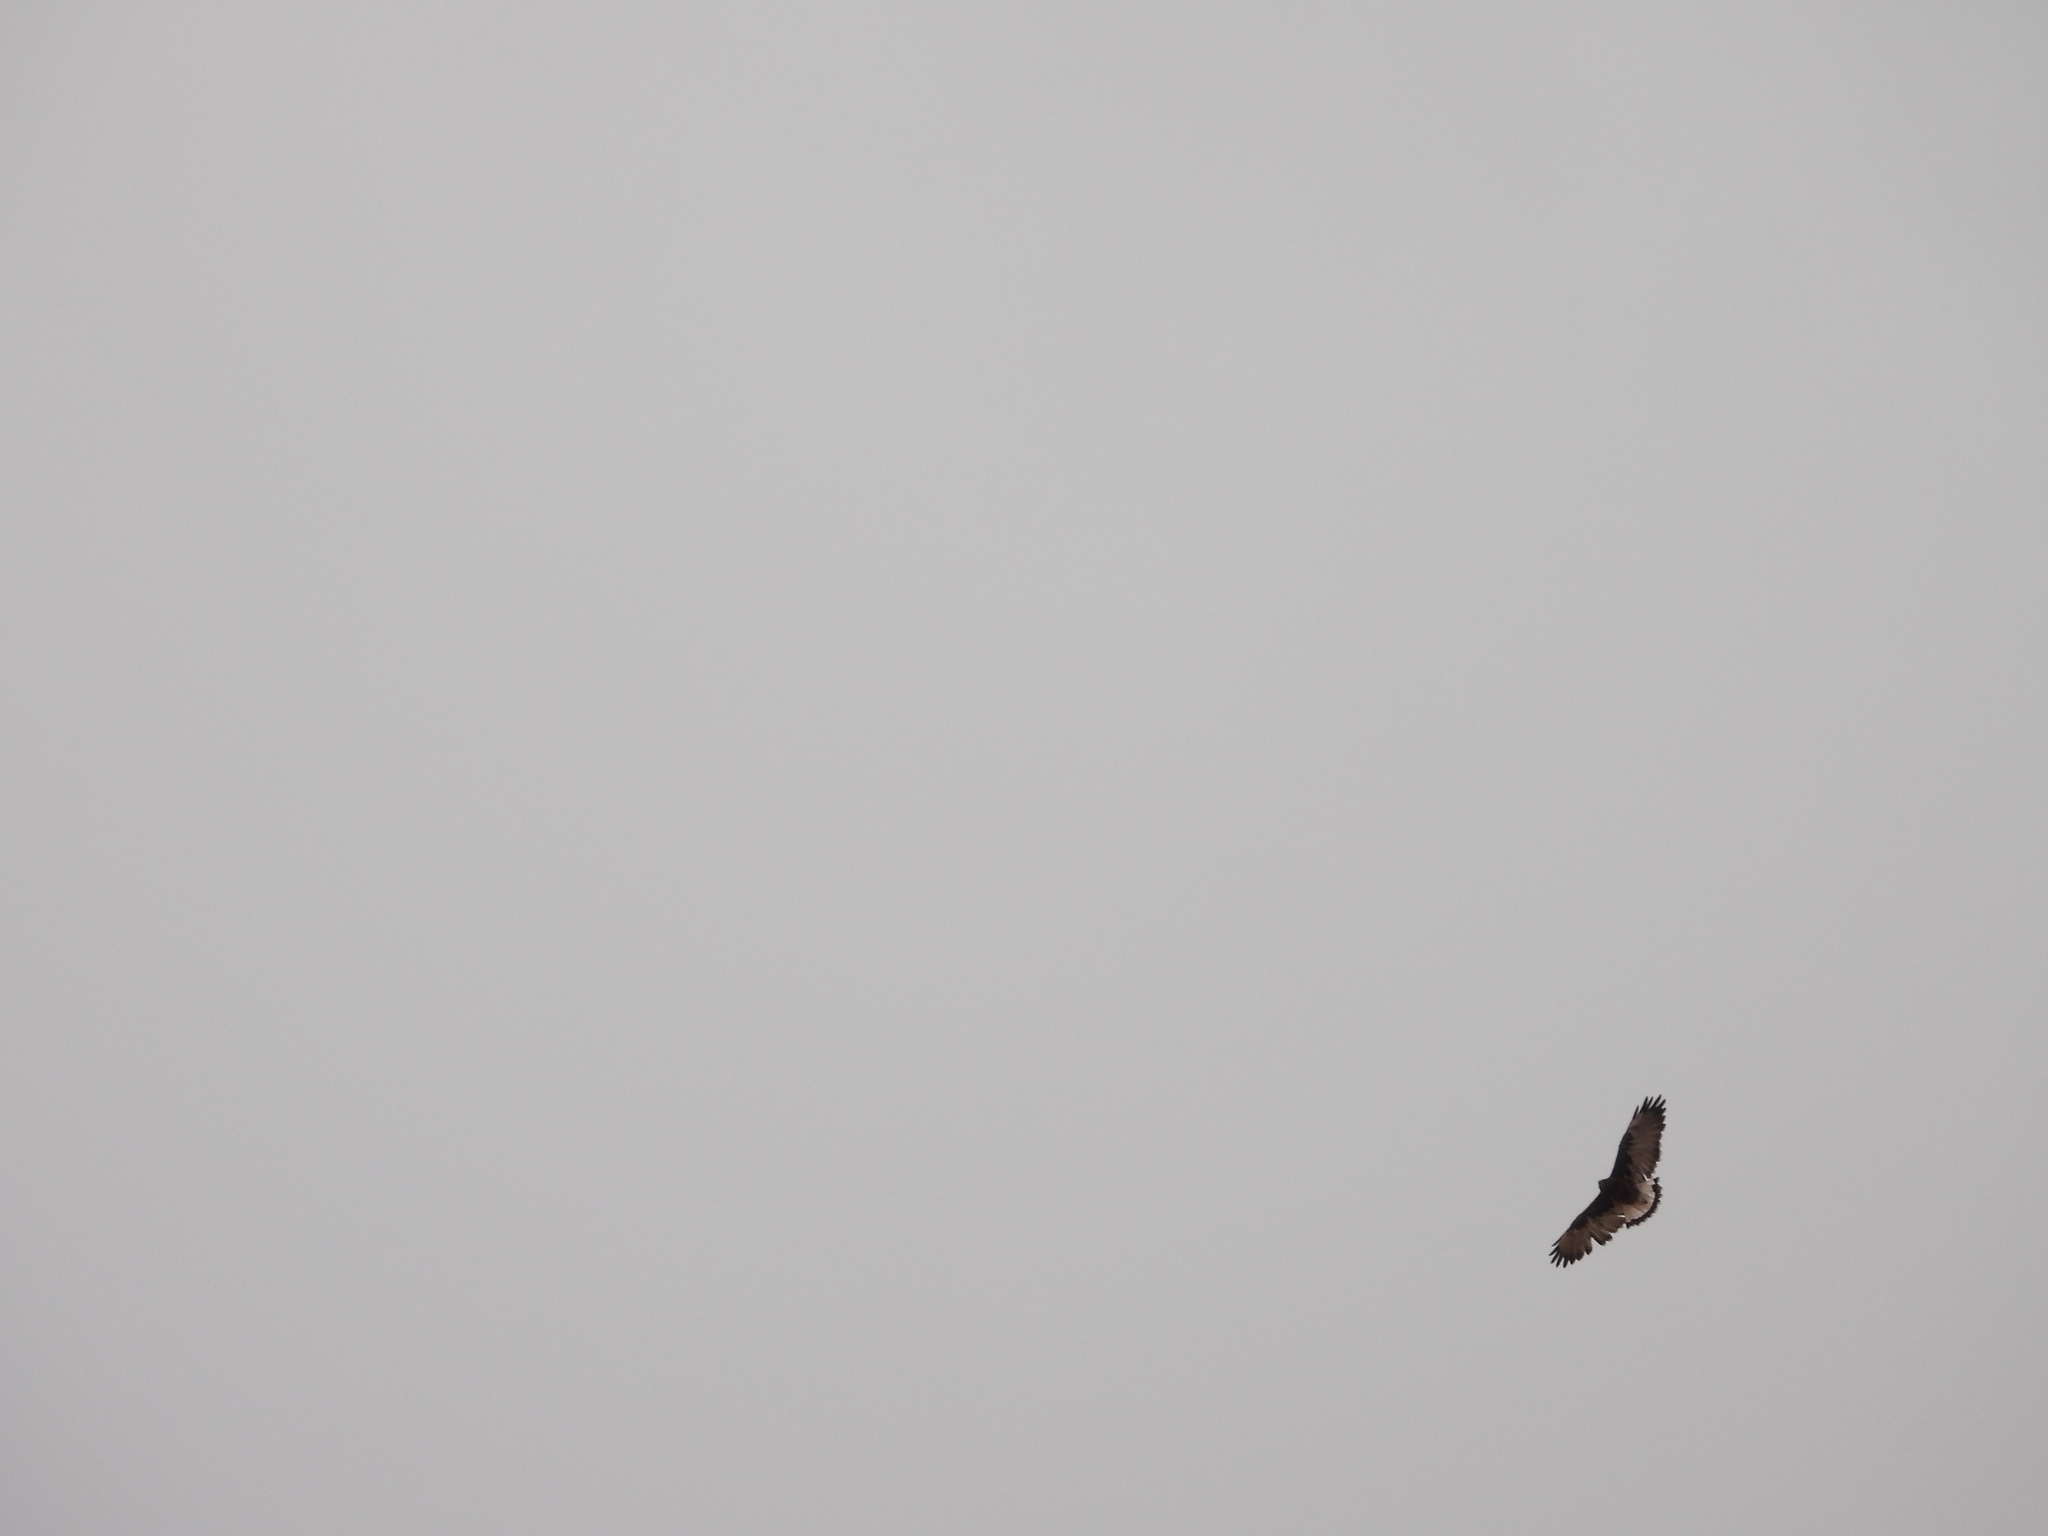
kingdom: Animalia
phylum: Chordata
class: Aves
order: Accipitriformes
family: Accipitridae
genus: Buteo
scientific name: Buteo polyosoma
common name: Variable hawk
